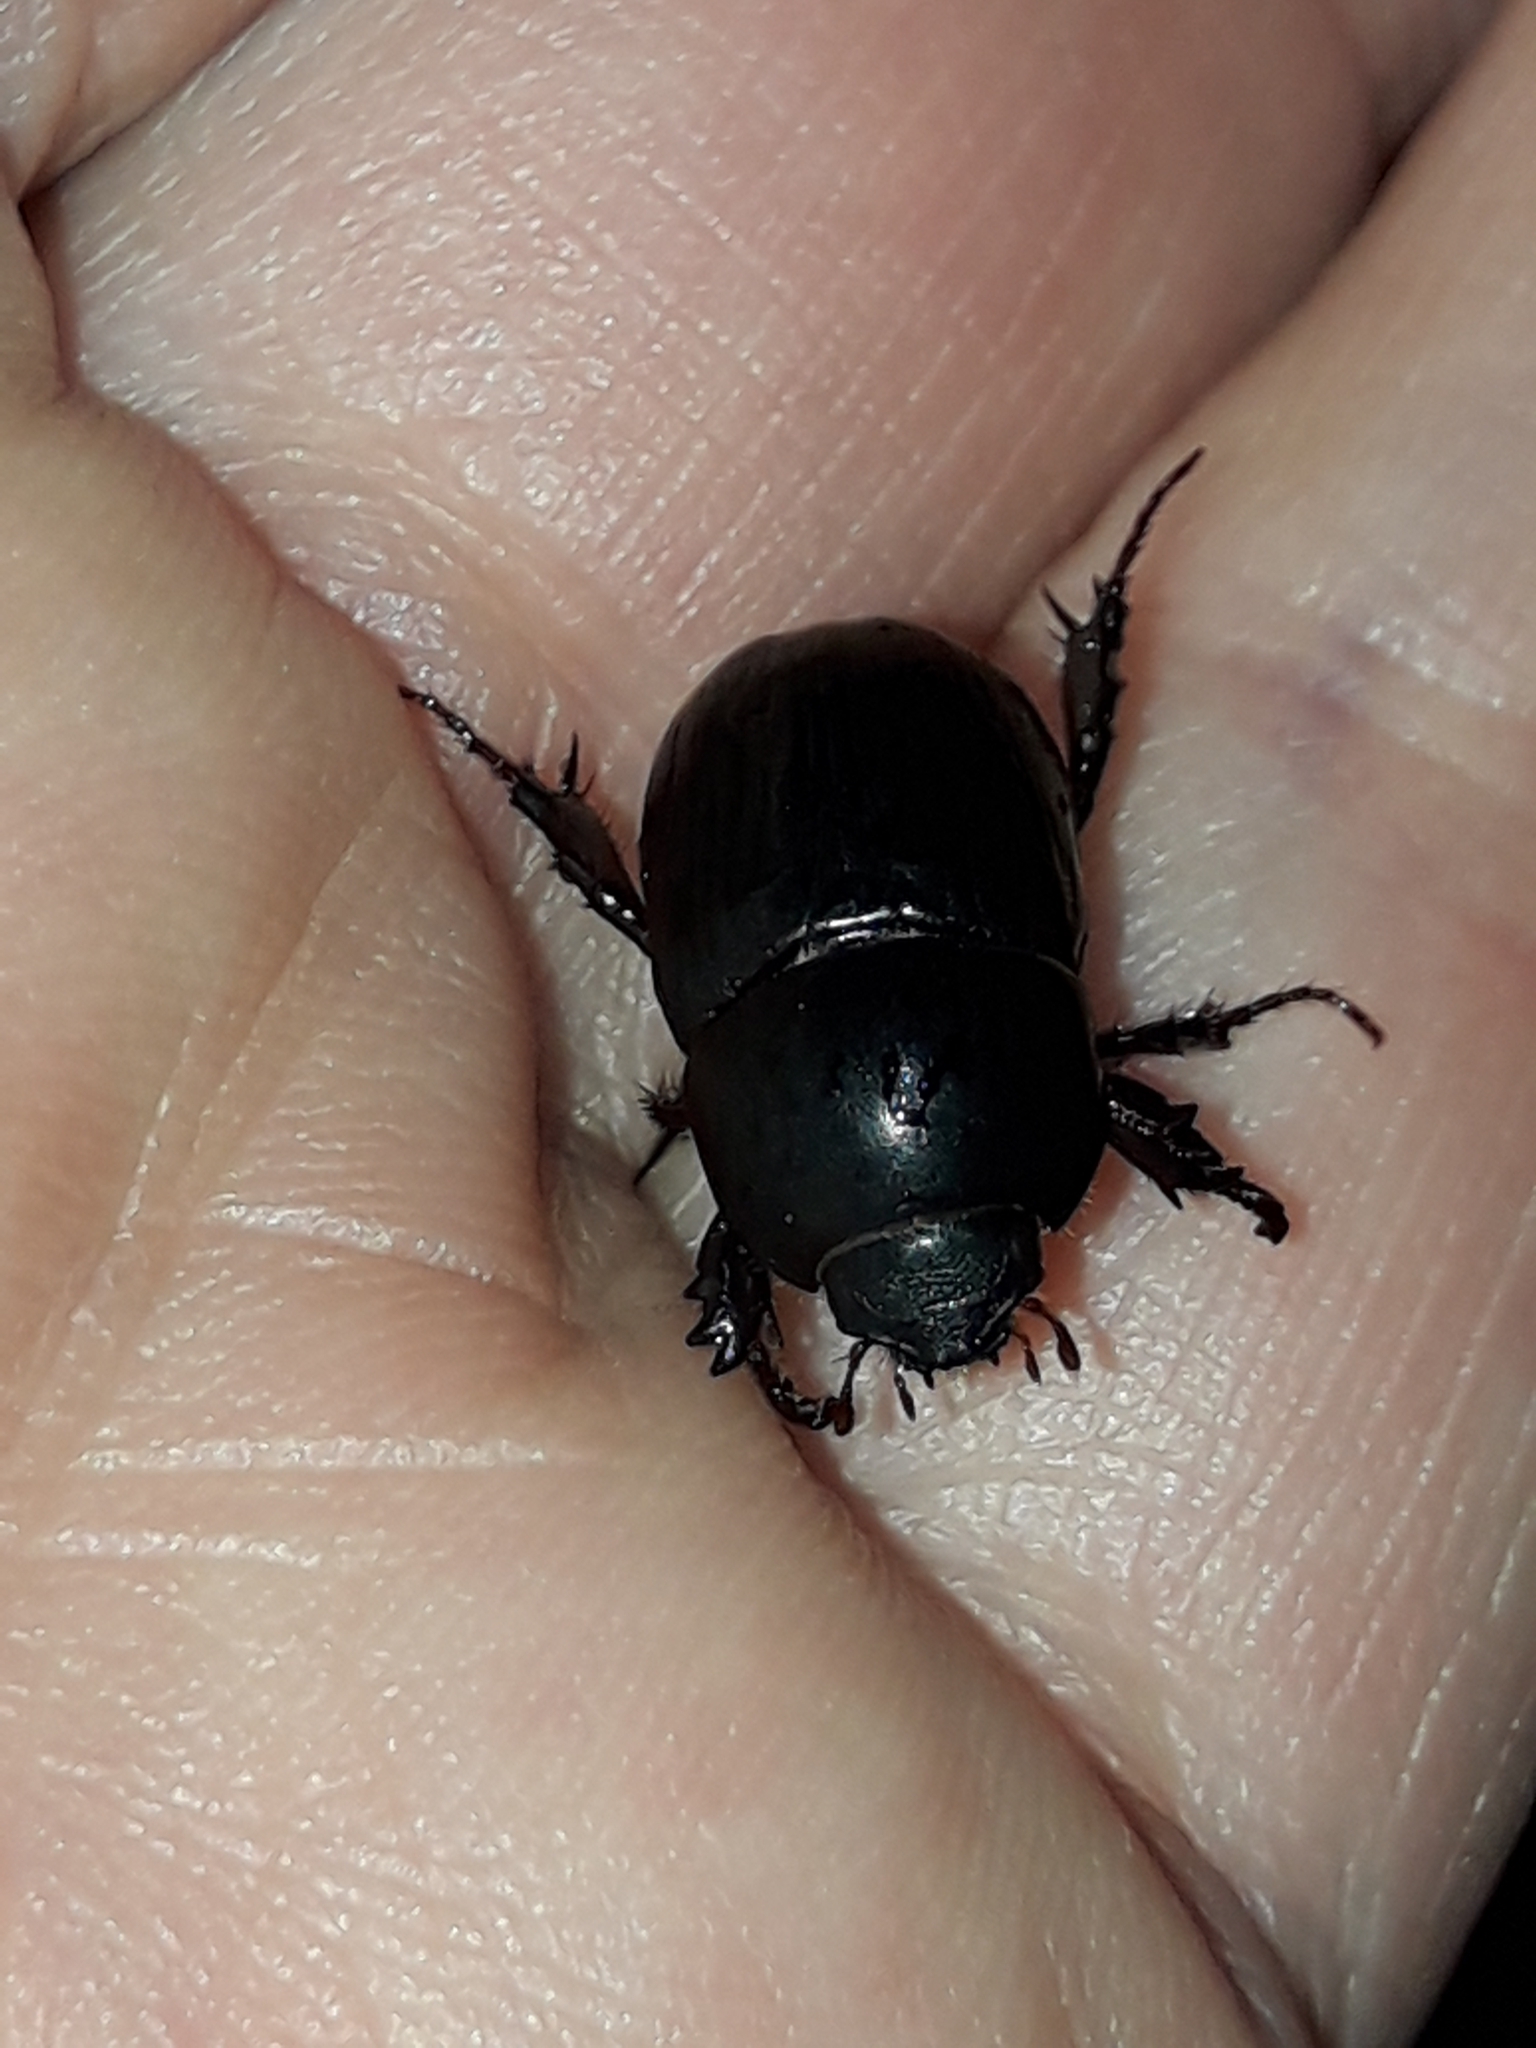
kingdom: Animalia
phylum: Arthropoda
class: Insecta
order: Coleoptera
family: Scarabaeidae
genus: Heteronychus
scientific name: Heteronychus arator
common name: African black beetle
